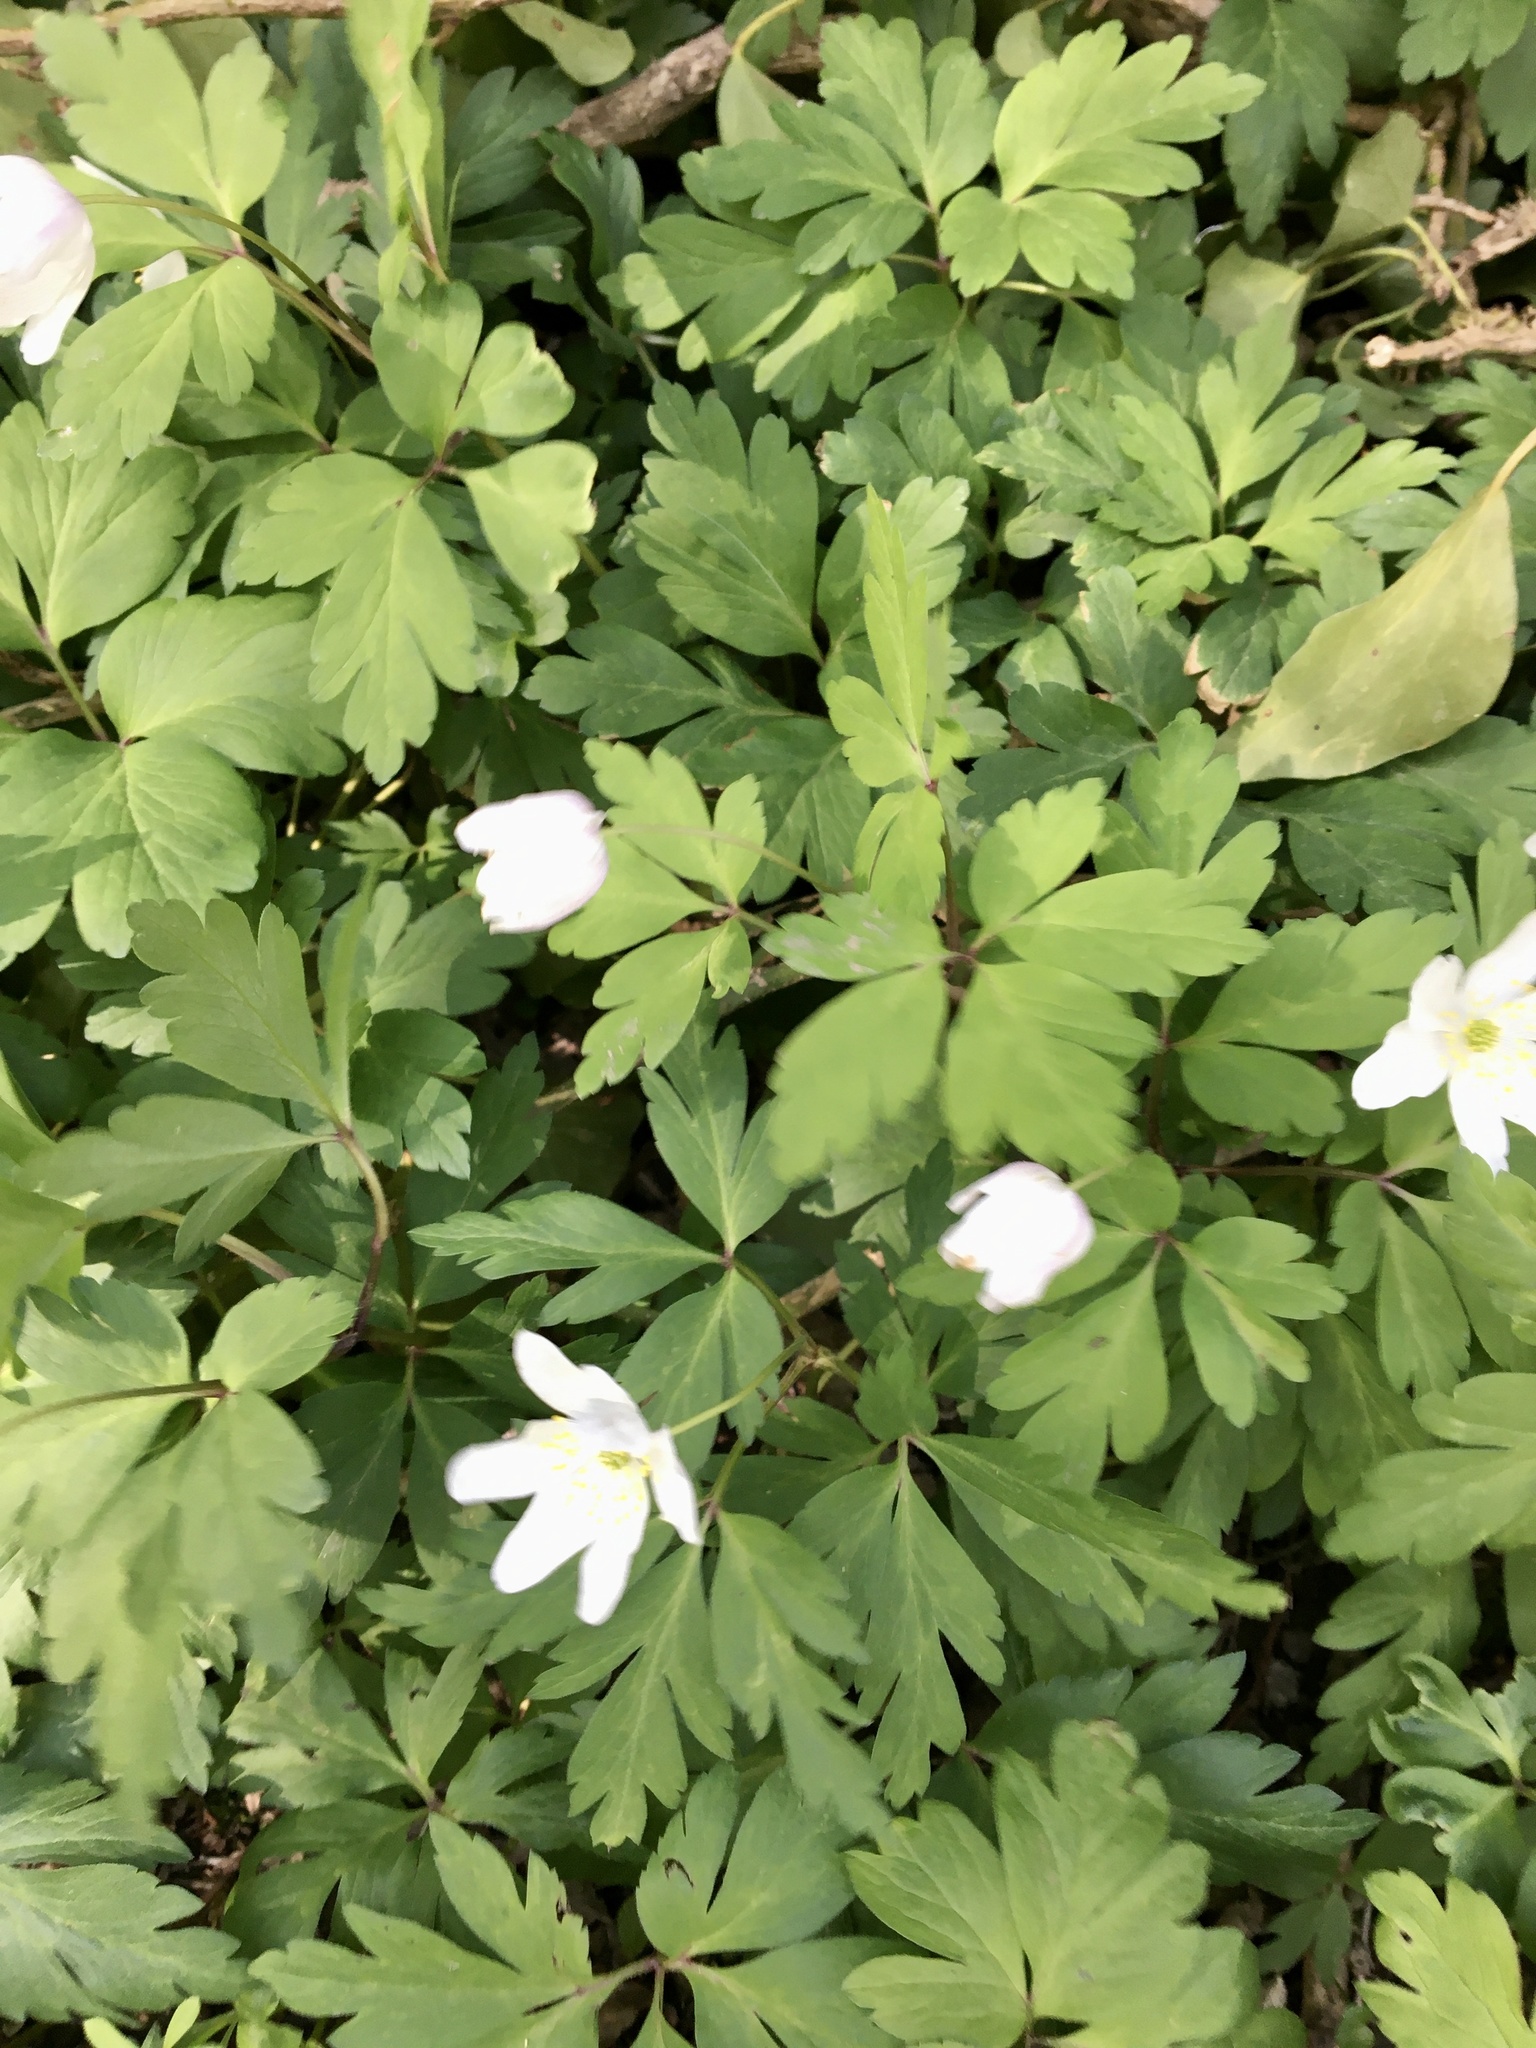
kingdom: Plantae
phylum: Tracheophyta
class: Magnoliopsida
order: Ranunculales
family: Ranunculaceae
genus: Anemone
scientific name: Anemone nemorosa
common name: Wood anemone
